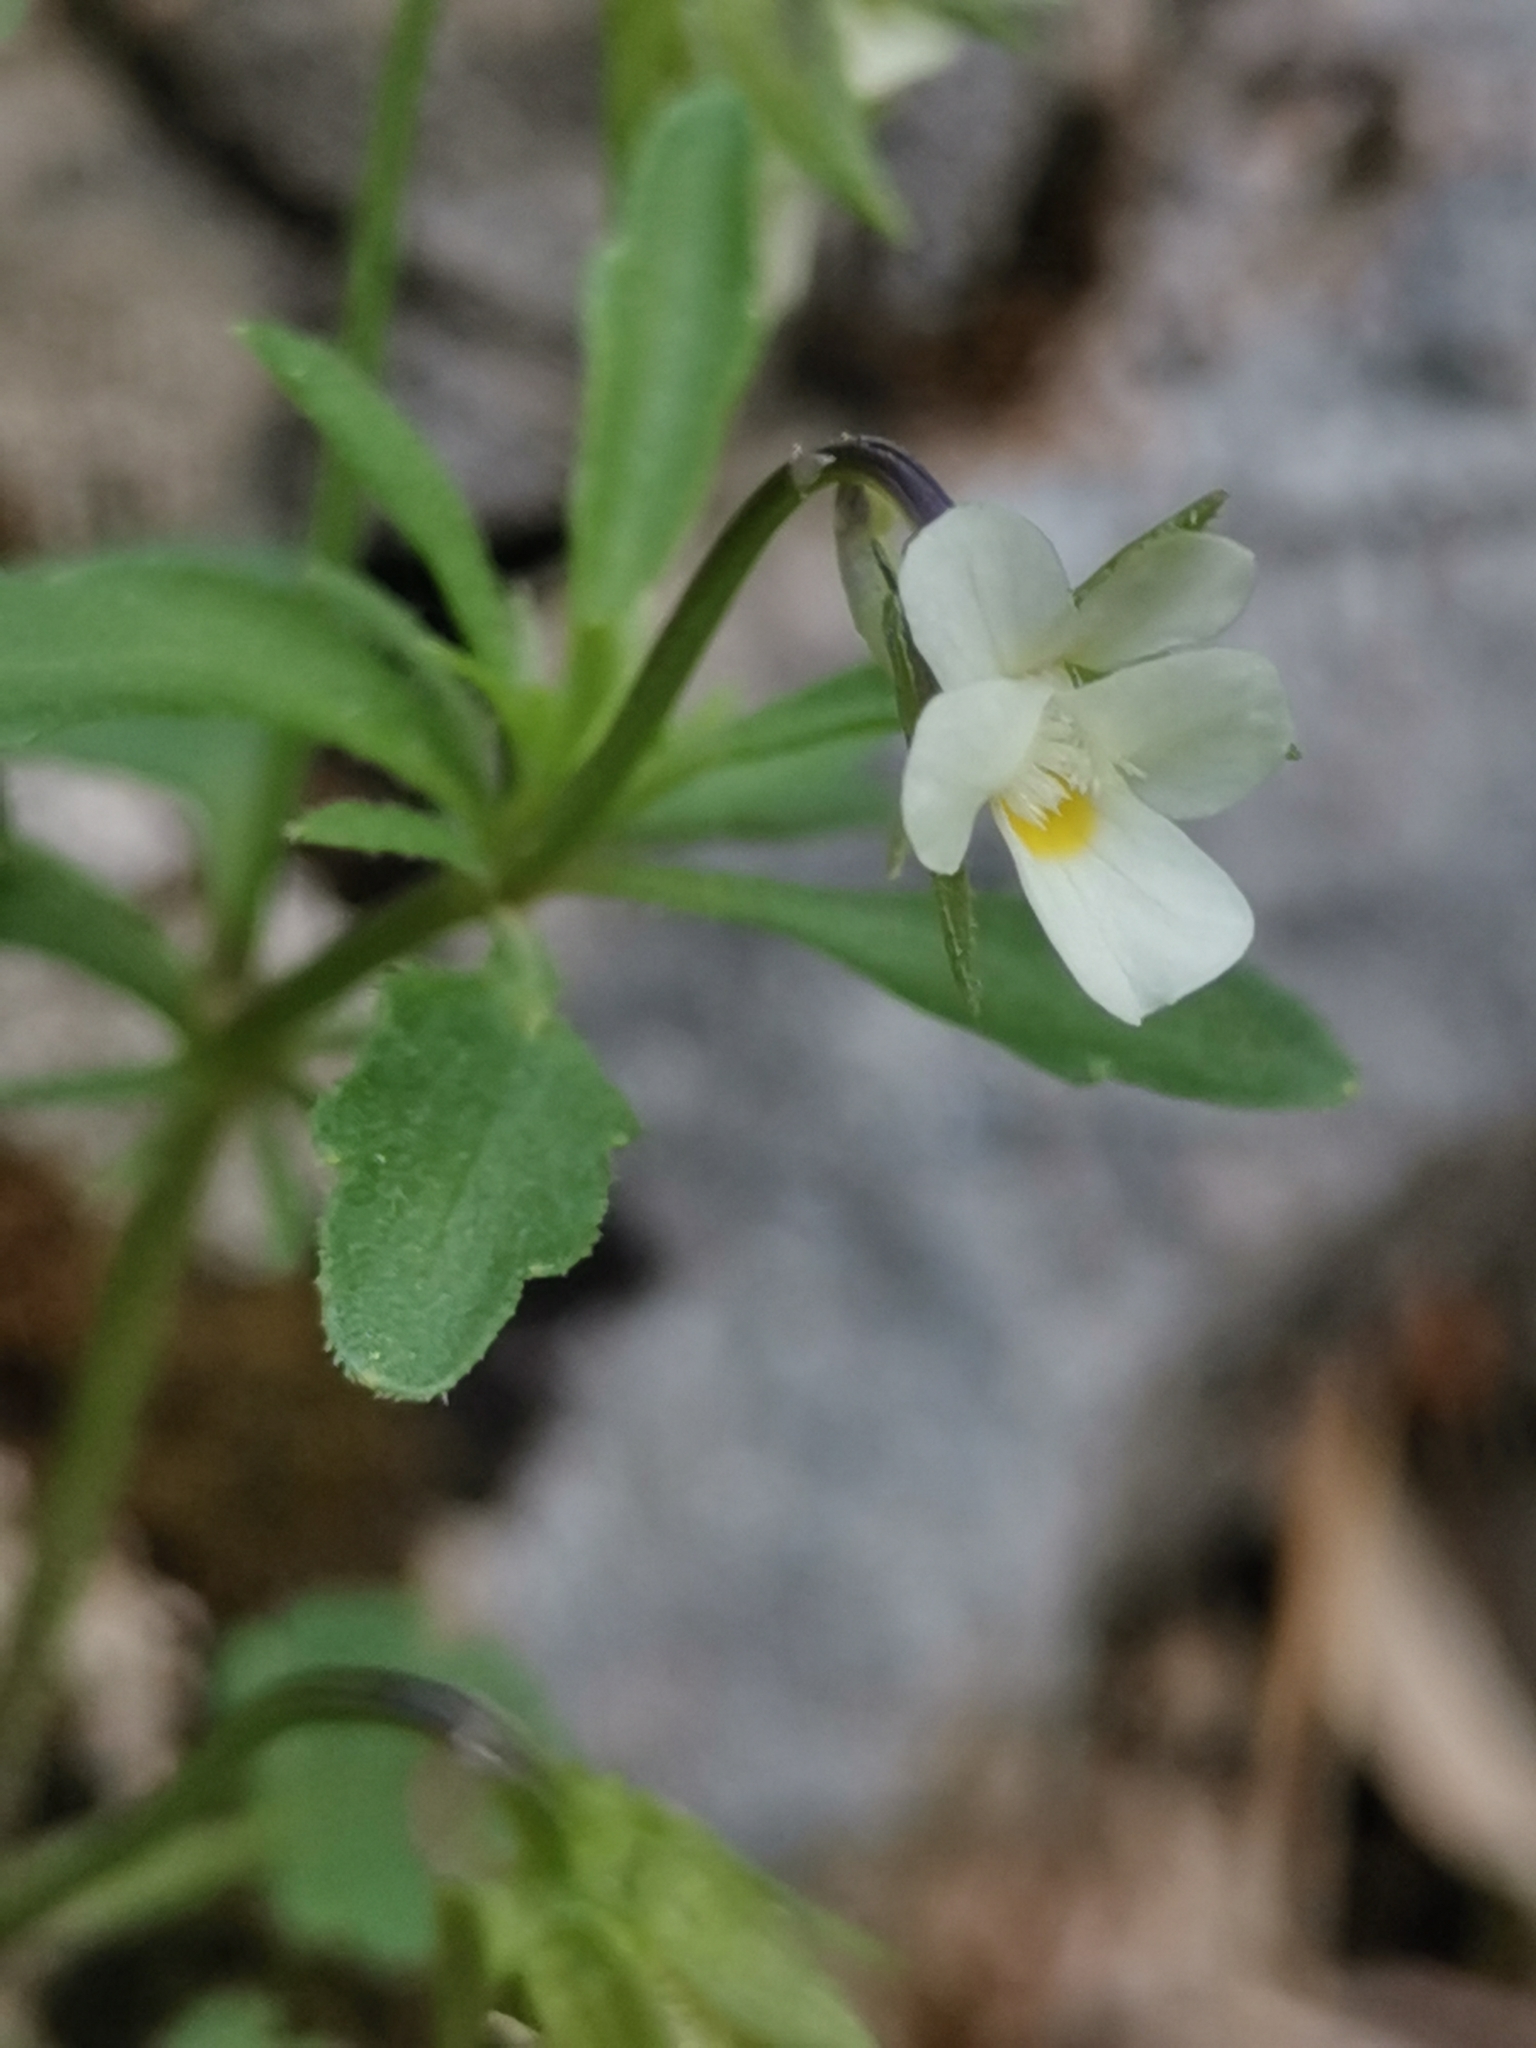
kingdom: Plantae
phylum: Tracheophyta
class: Magnoliopsida
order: Malpighiales
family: Violaceae
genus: Viola
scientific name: Viola kitaibeliana
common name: Dwarf pansy
